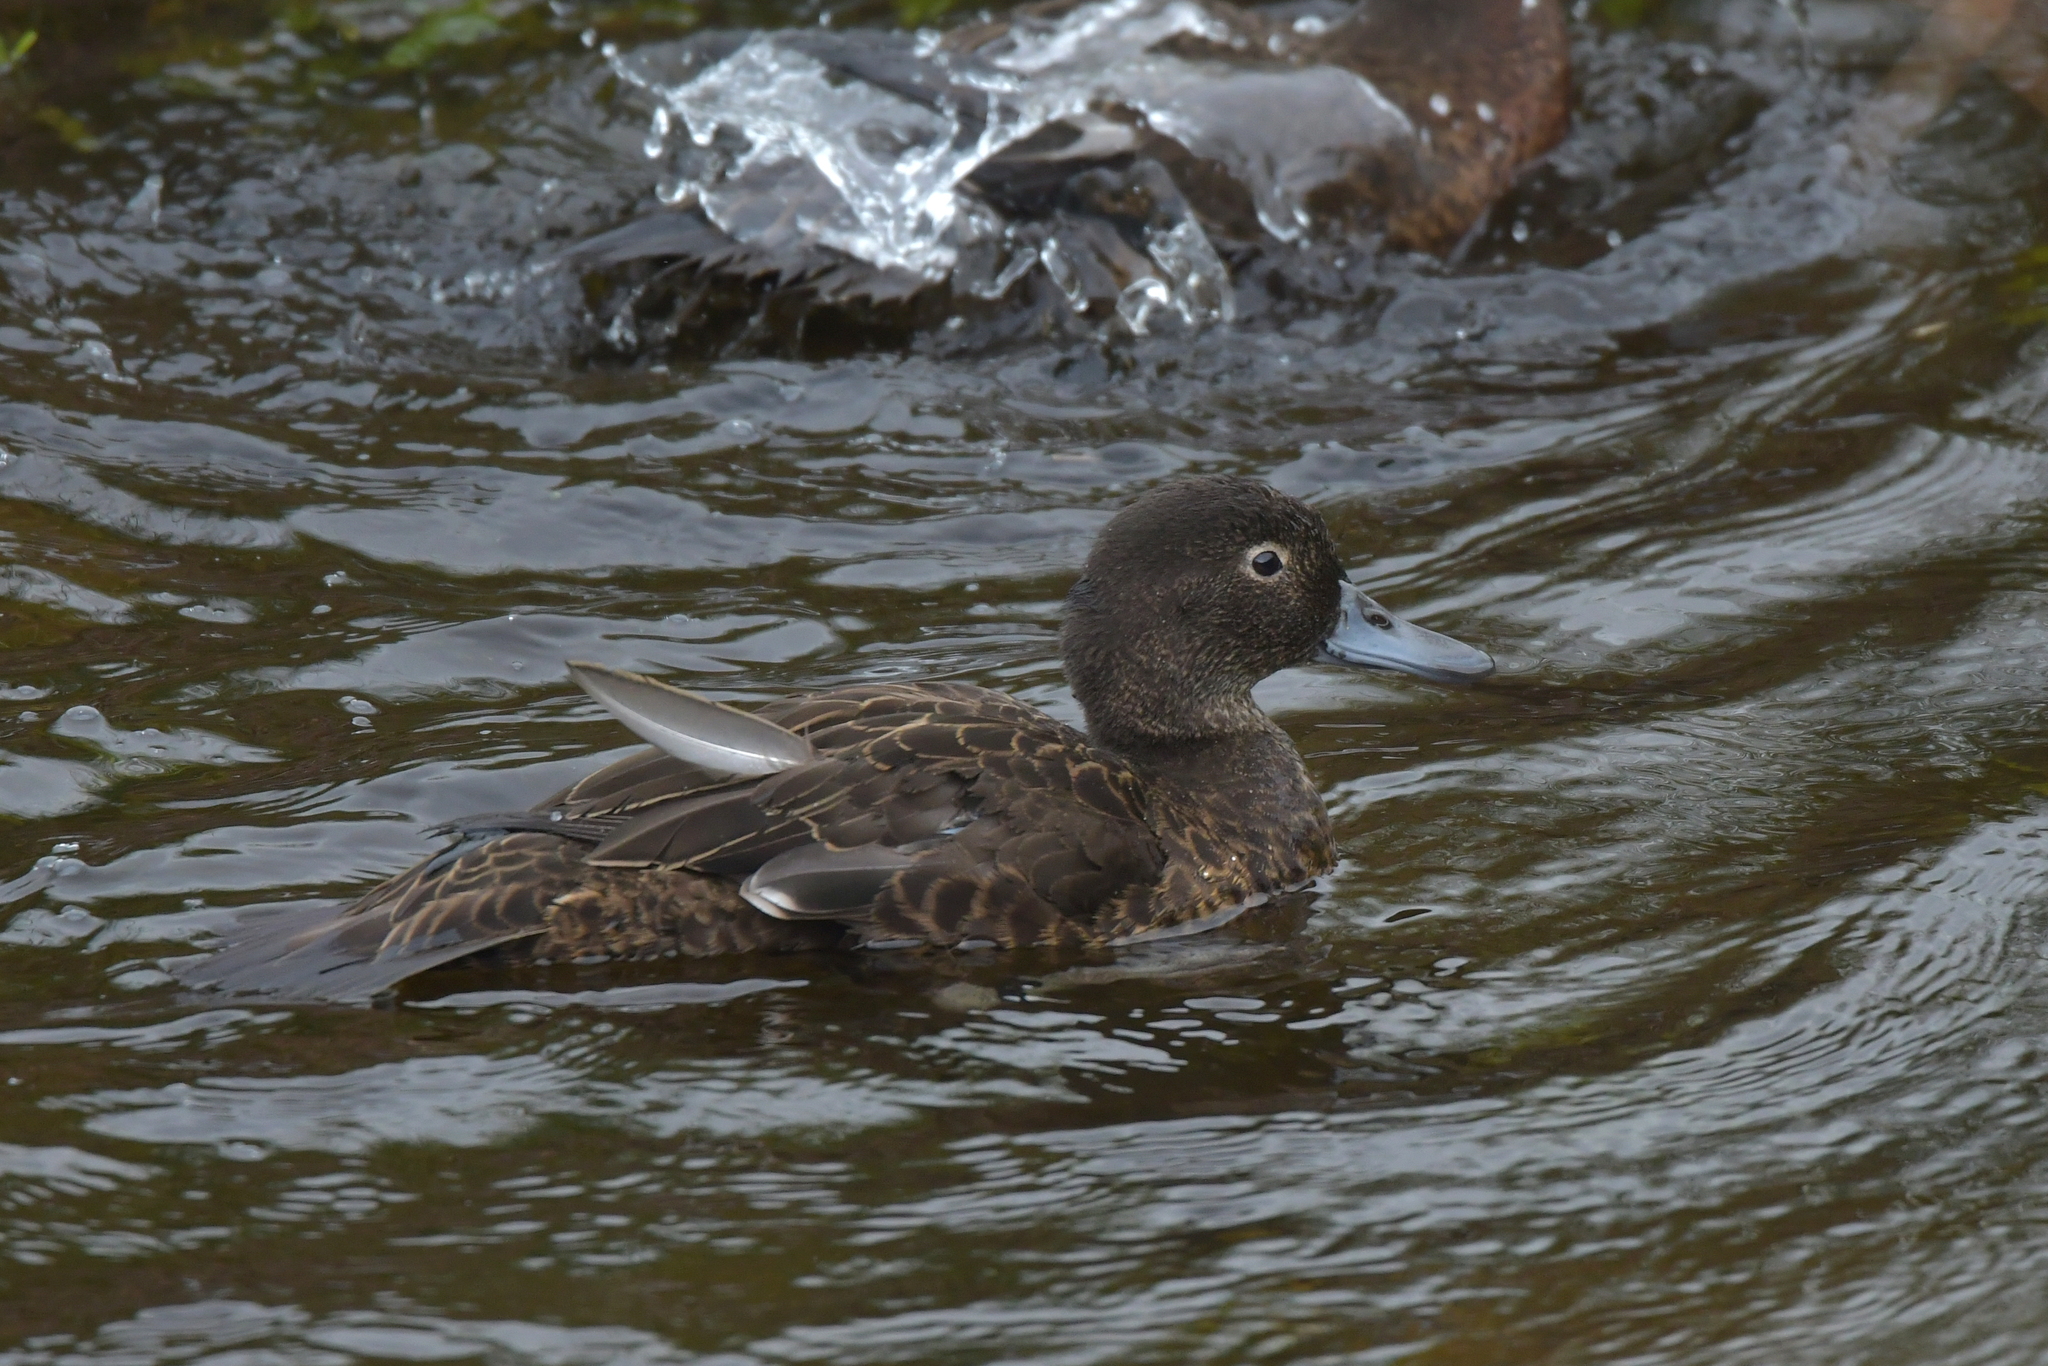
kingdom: Animalia
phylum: Chordata
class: Aves
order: Anseriformes
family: Anatidae
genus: Anas
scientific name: Anas chlorotis
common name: Brown teal
